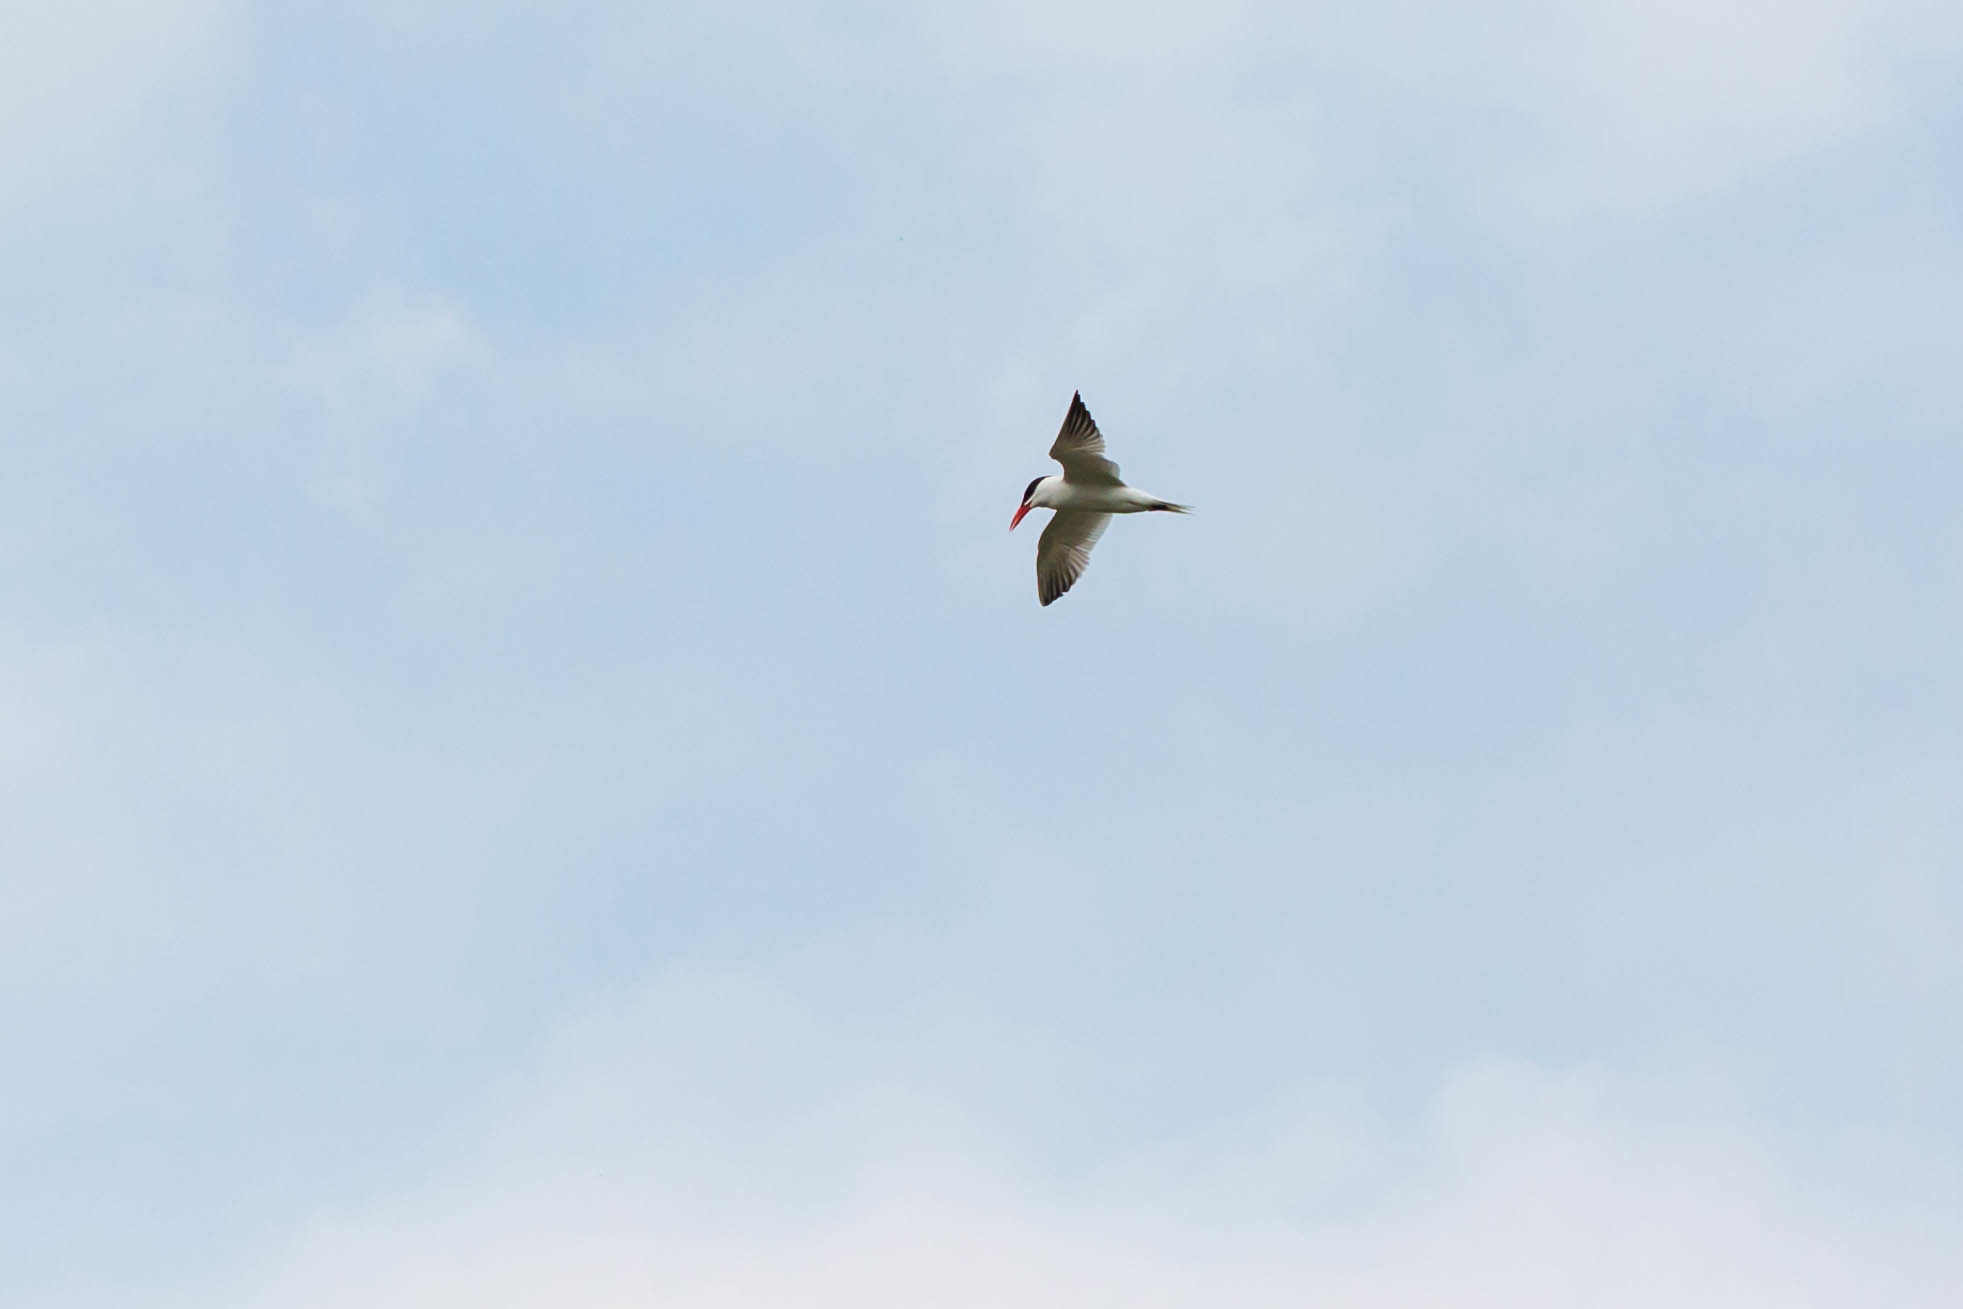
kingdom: Animalia
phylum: Chordata
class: Aves
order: Charadriiformes
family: Laridae
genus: Hydroprogne
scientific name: Hydroprogne caspia
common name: Caspian tern
